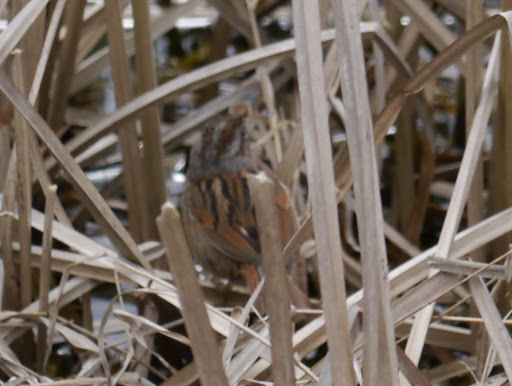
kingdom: Animalia
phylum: Chordata
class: Aves
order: Passeriformes
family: Passerellidae
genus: Melospiza
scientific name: Melospiza georgiana
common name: Swamp sparrow
